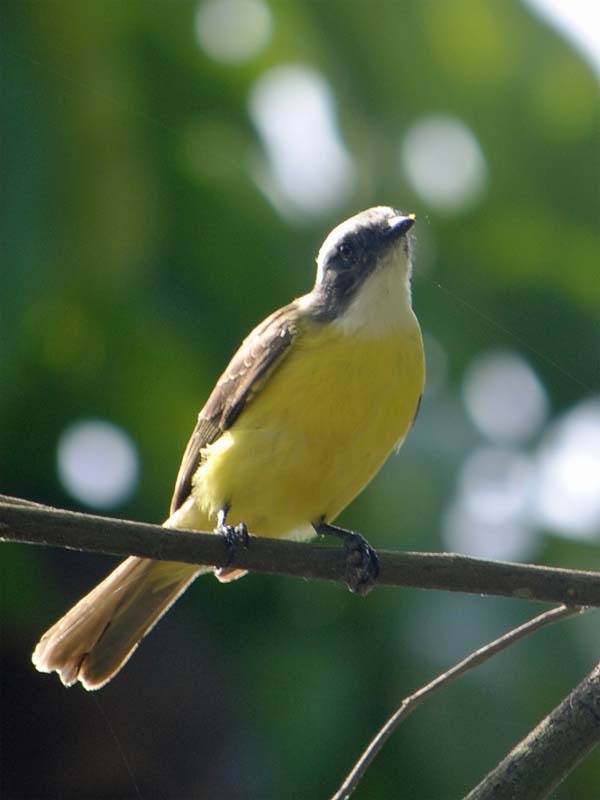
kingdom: Animalia
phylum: Chordata
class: Aves
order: Passeriformes
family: Tyrannidae
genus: Myiozetetes
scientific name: Myiozetetes similis
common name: Social flycatcher
